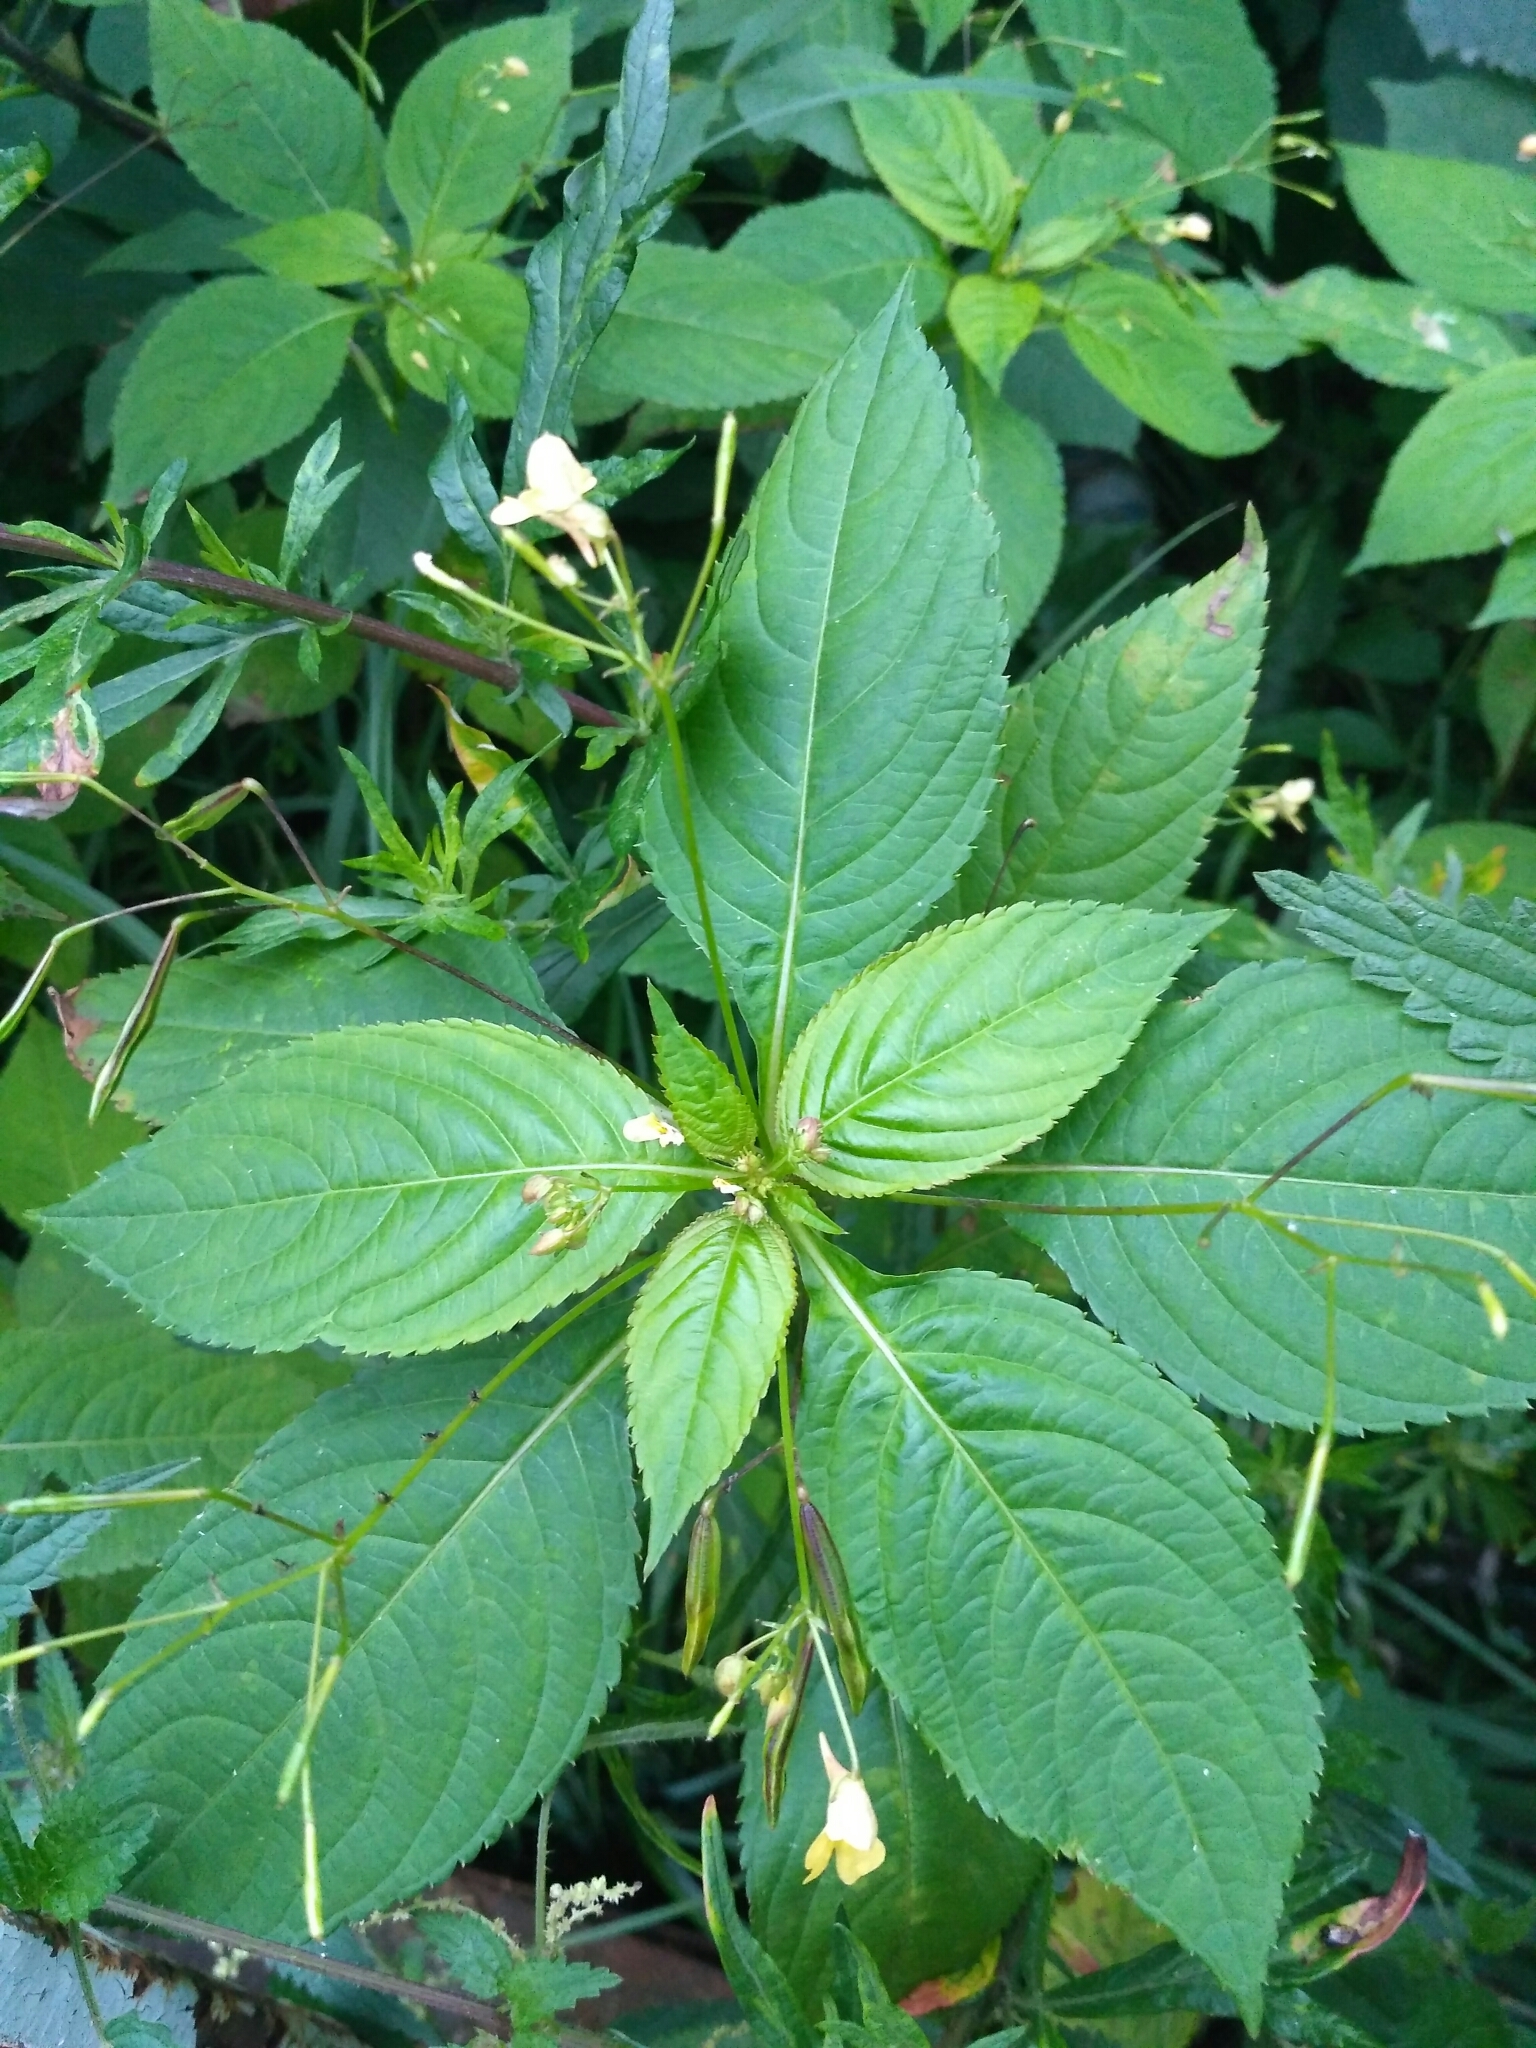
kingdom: Plantae
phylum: Tracheophyta
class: Magnoliopsida
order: Ericales
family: Balsaminaceae
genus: Impatiens
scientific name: Impatiens parviflora
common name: Small balsam
